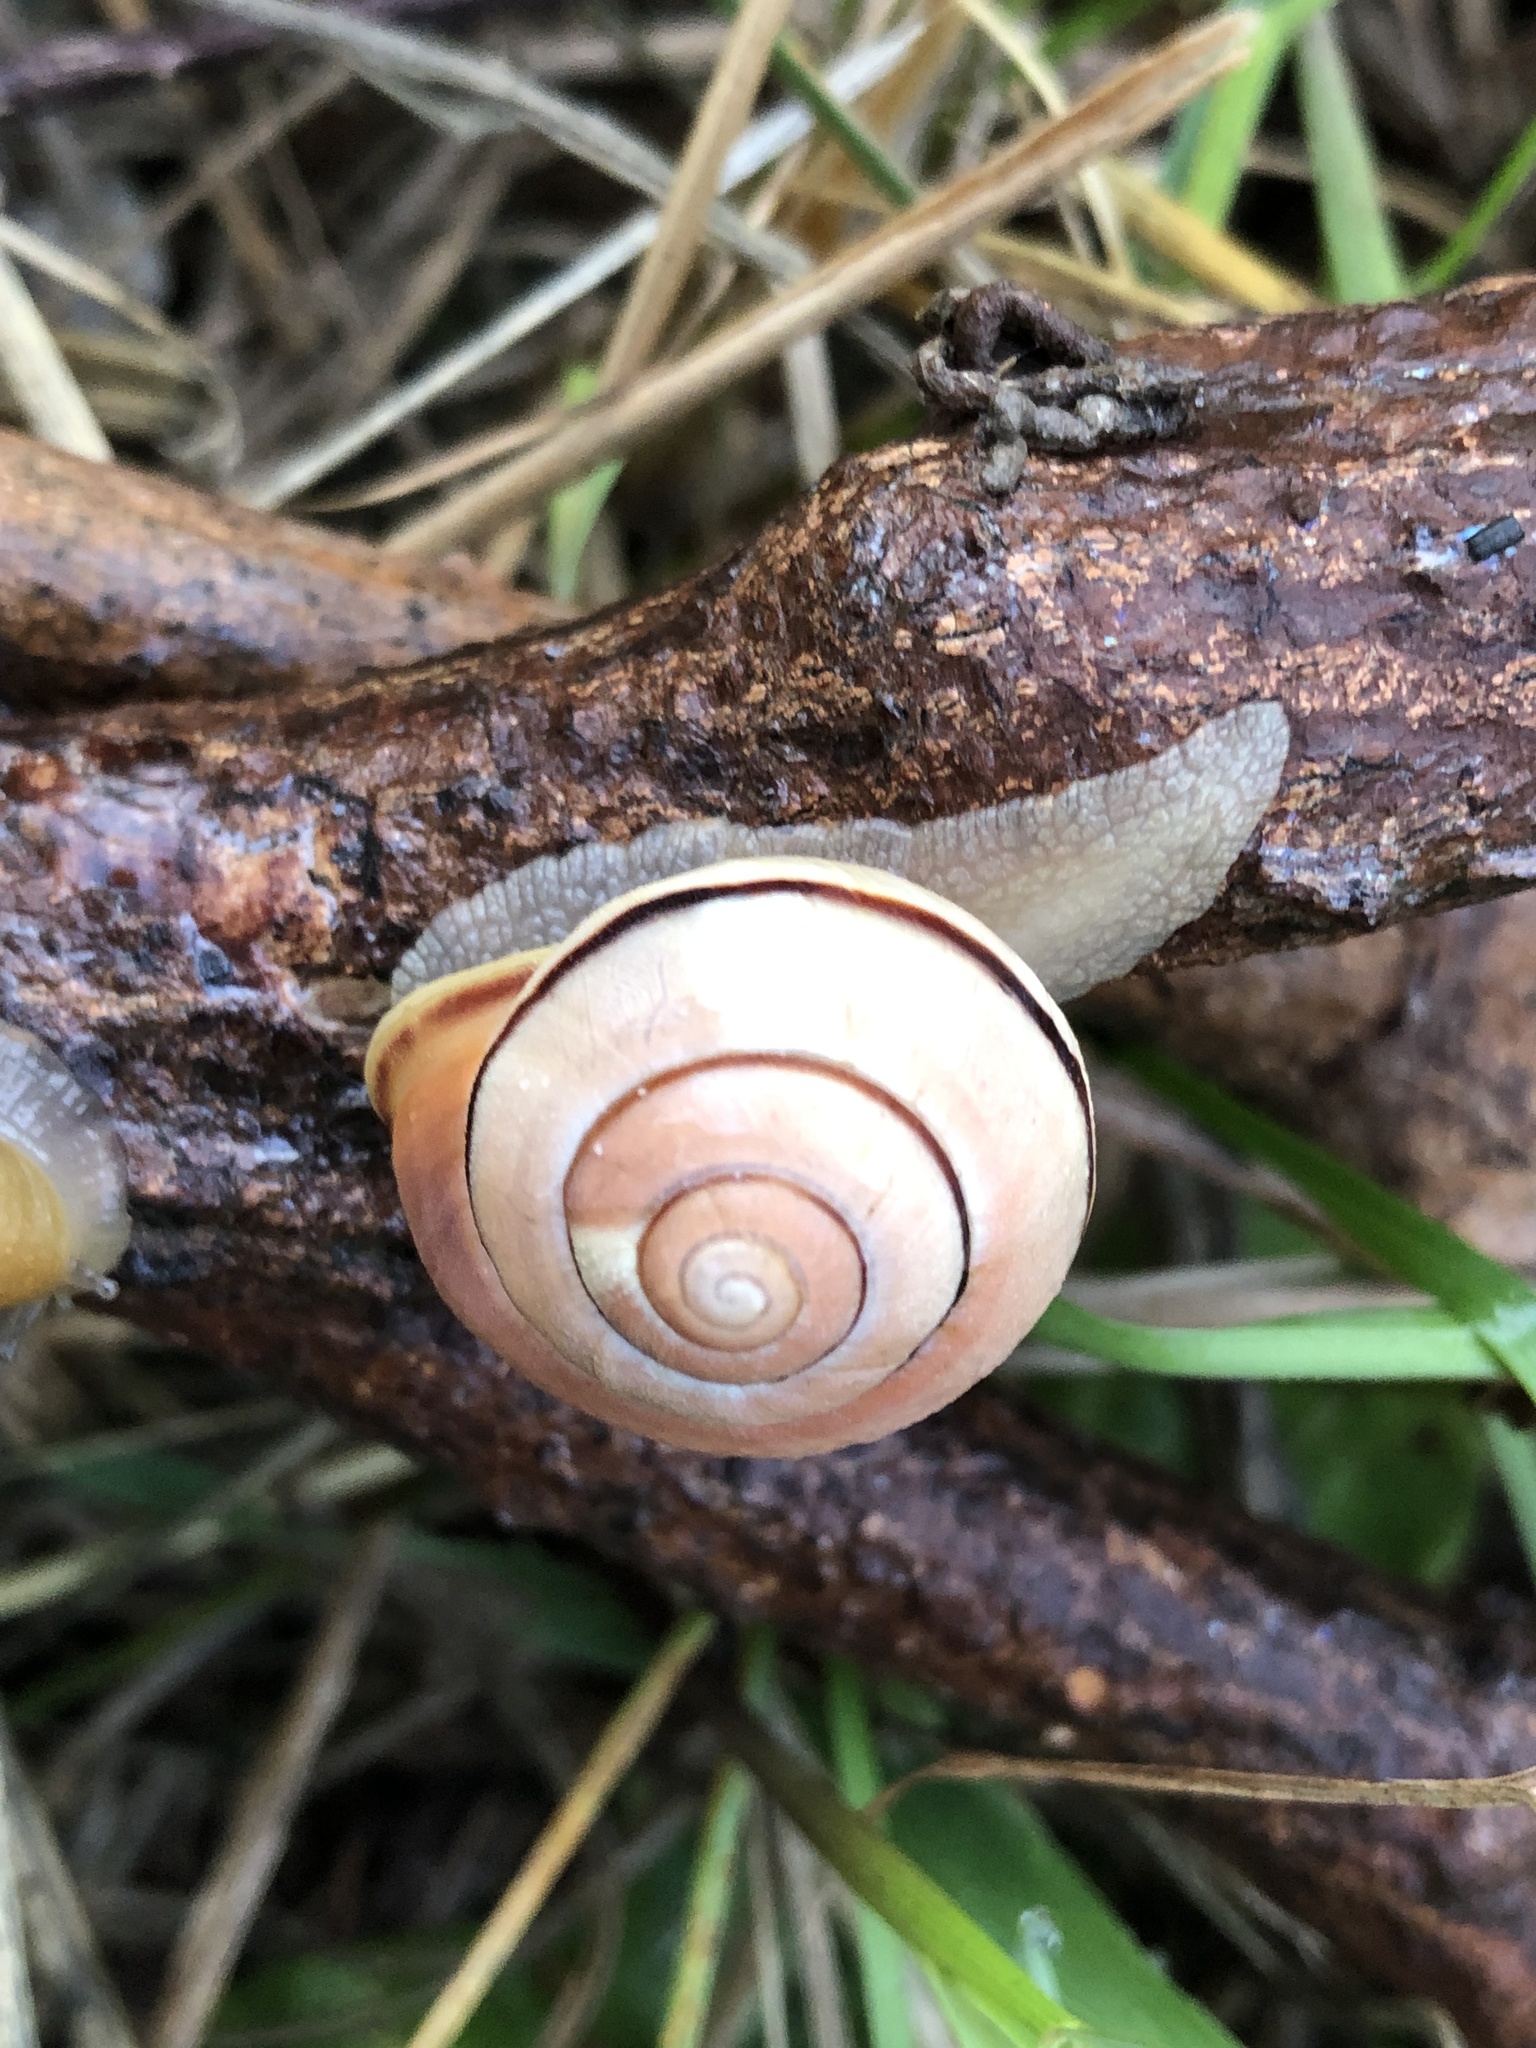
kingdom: Animalia
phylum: Mollusca
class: Gastropoda
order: Stylommatophora
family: Helicidae
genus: Cepaea
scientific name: Cepaea nemoralis
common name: Grovesnail
